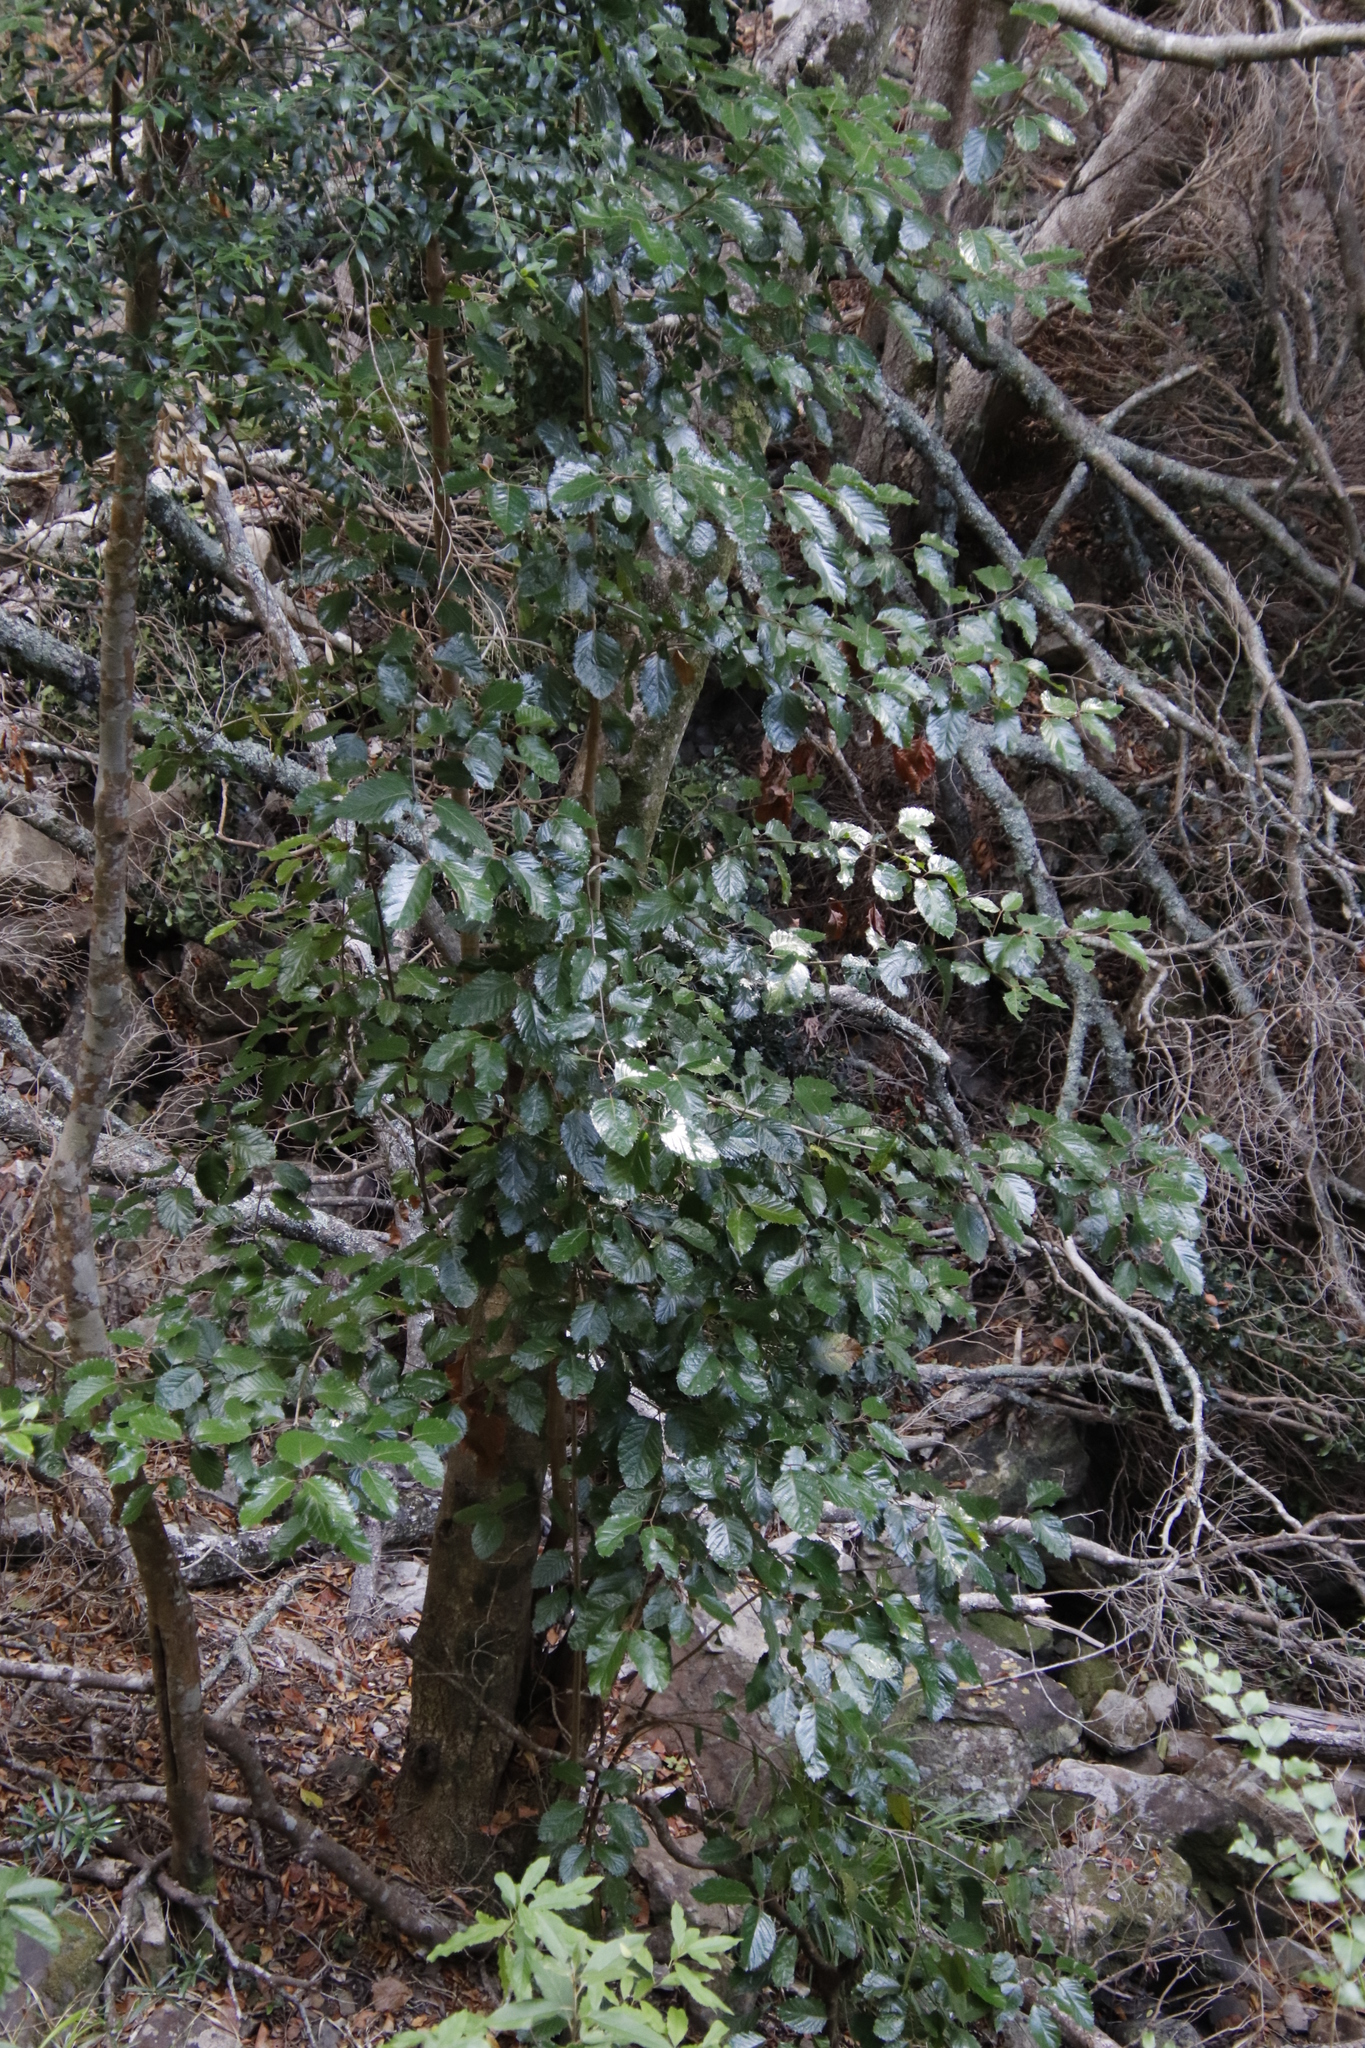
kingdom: Plantae
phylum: Tracheophyta
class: Magnoliopsida
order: Cornales
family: Curtisiaceae
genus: Curtisia
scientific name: Curtisia dentata
